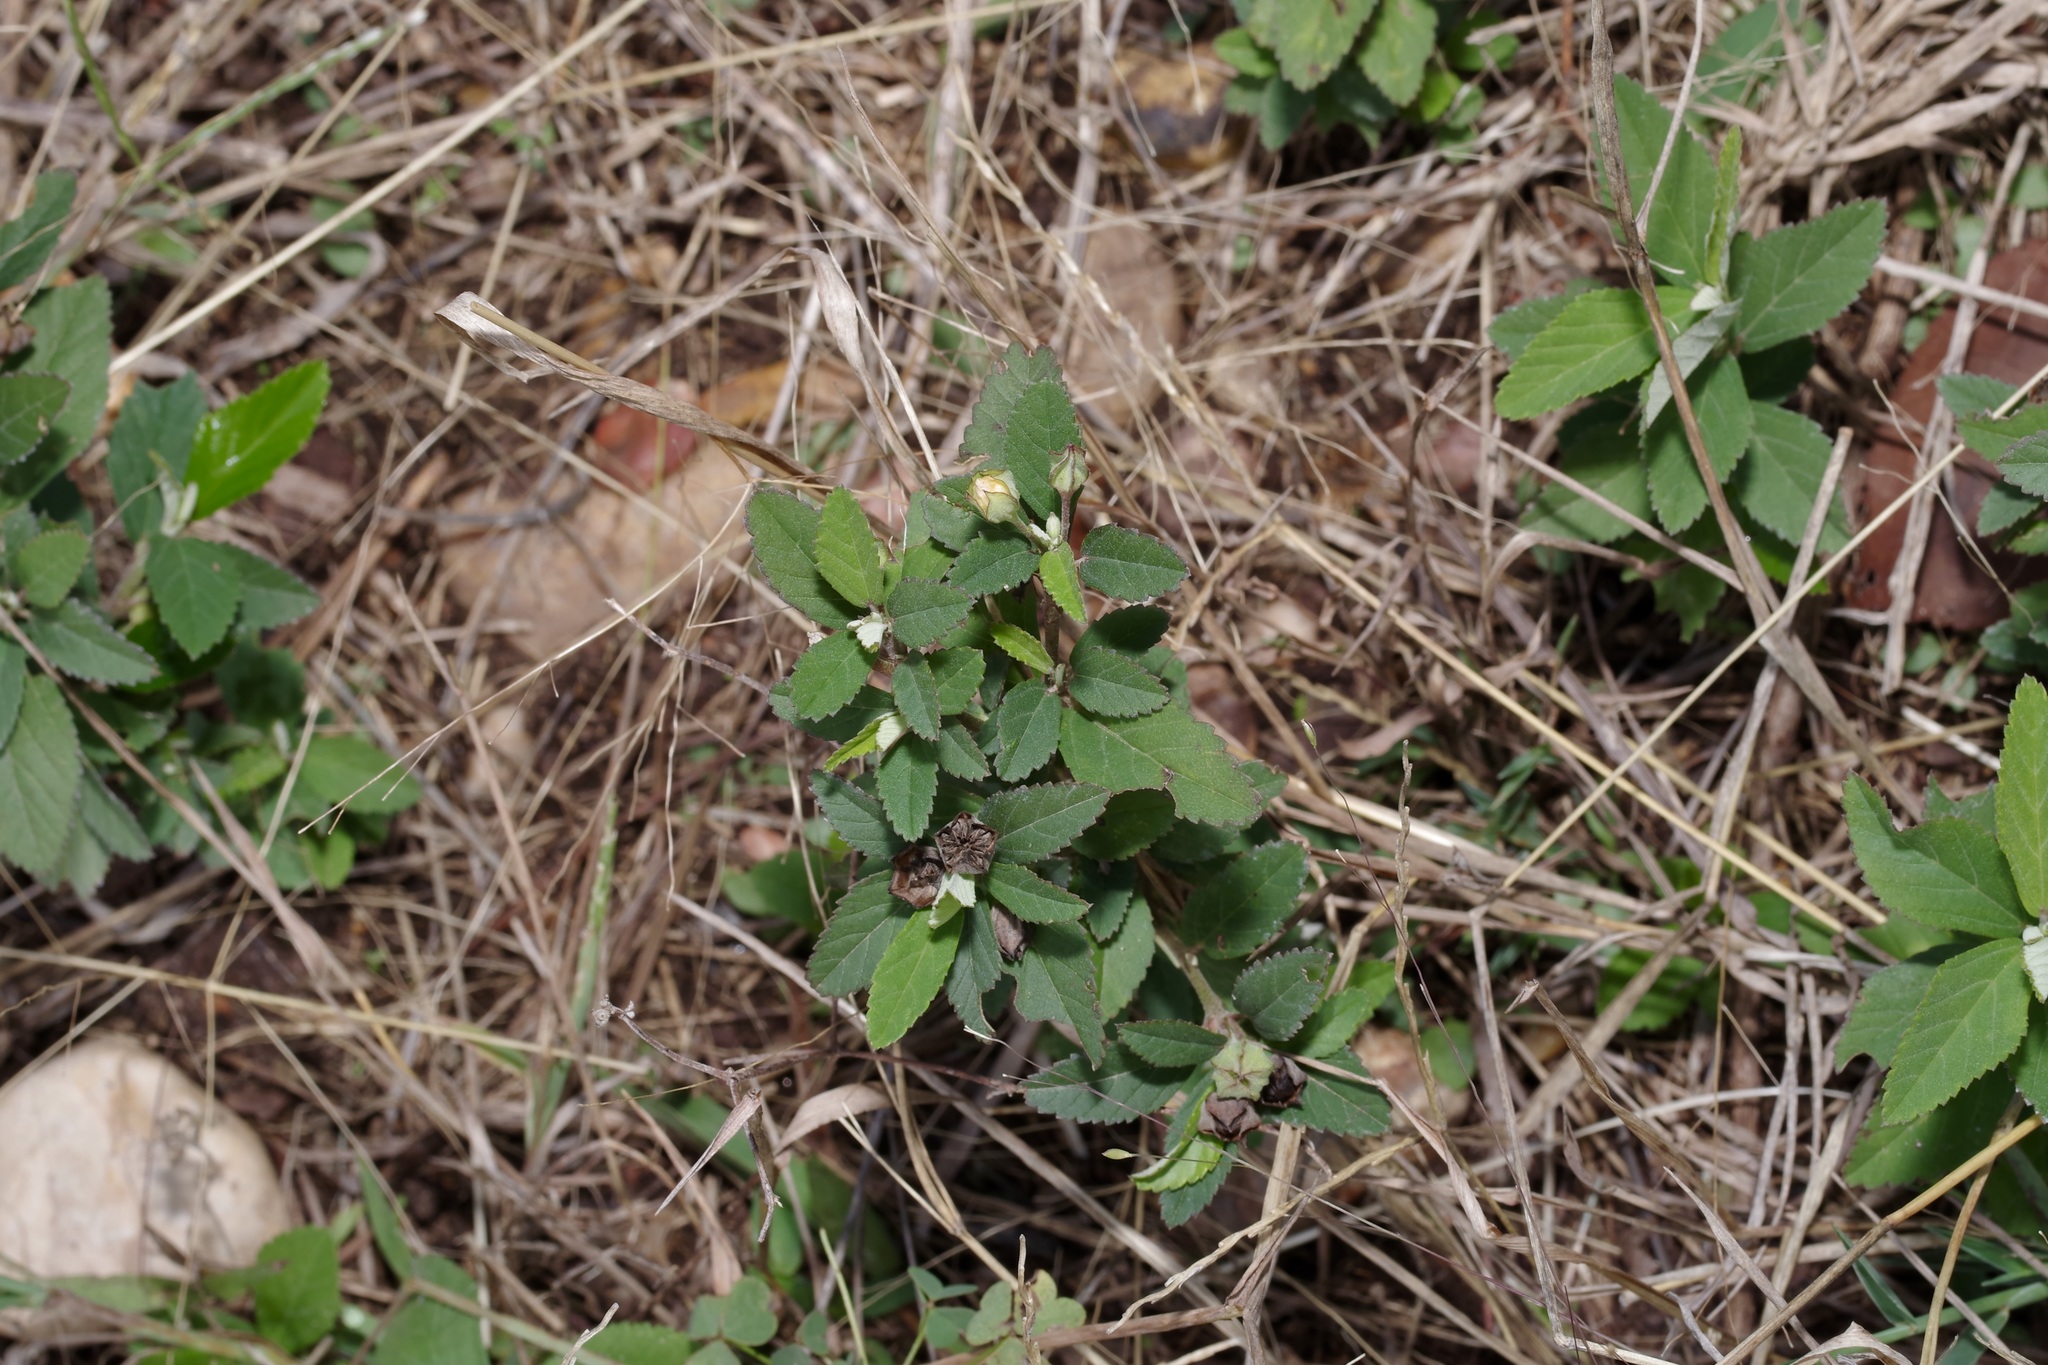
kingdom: Plantae
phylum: Tracheophyta
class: Magnoliopsida
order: Malvales
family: Malvaceae
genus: Sida
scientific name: Sida rhombifolia
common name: Queensland-hemp
